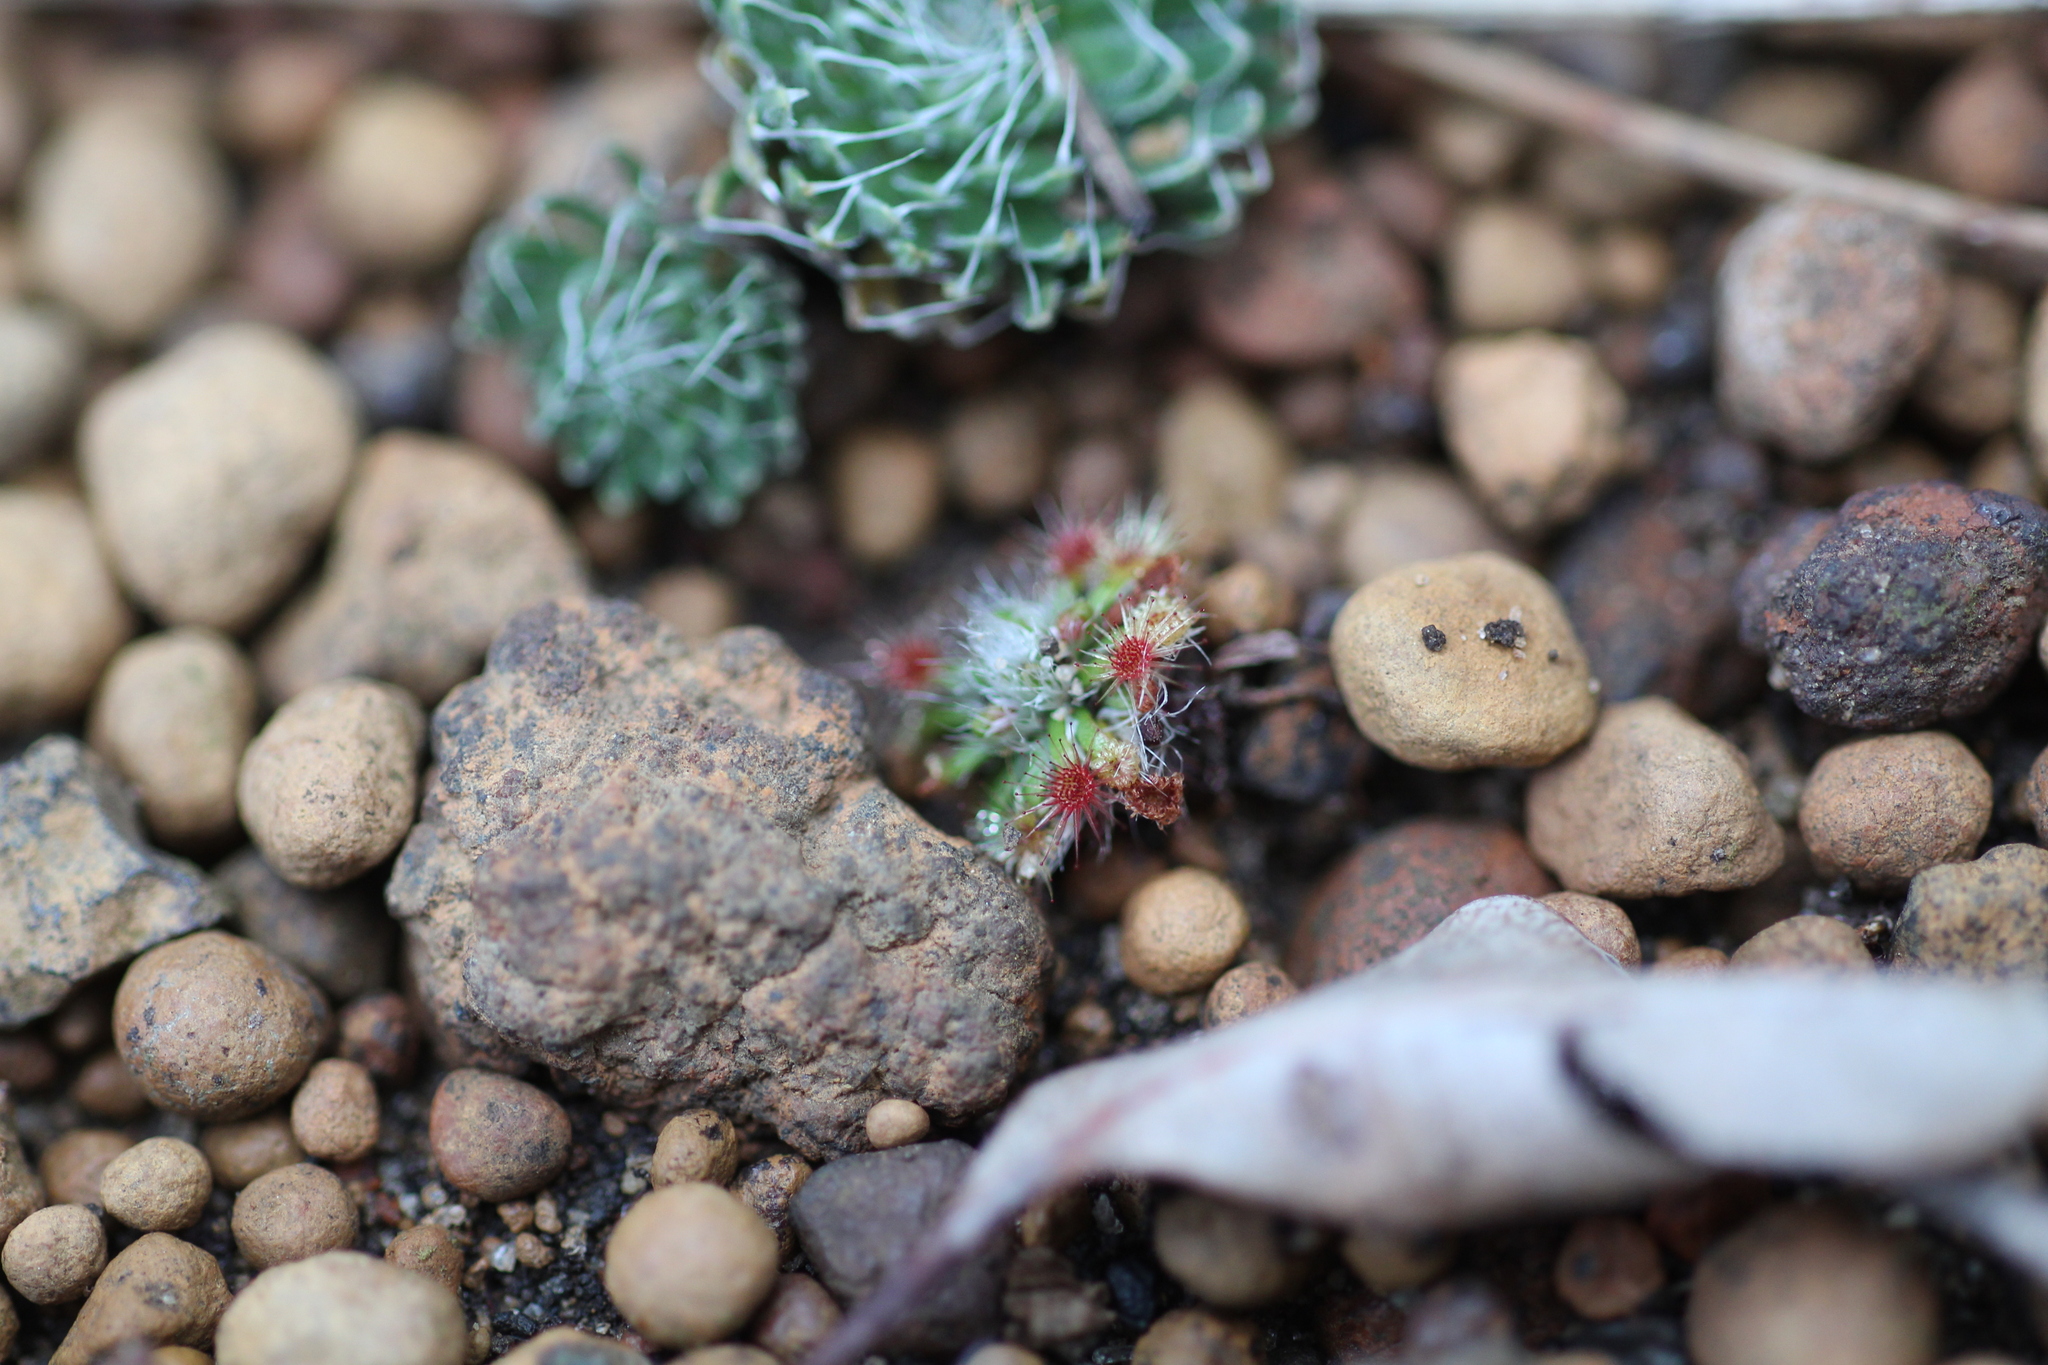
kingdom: Plantae
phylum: Tracheophyta
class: Magnoliopsida
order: Caryophyllales
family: Droseraceae
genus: Drosera
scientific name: Drosera hyperostigma
